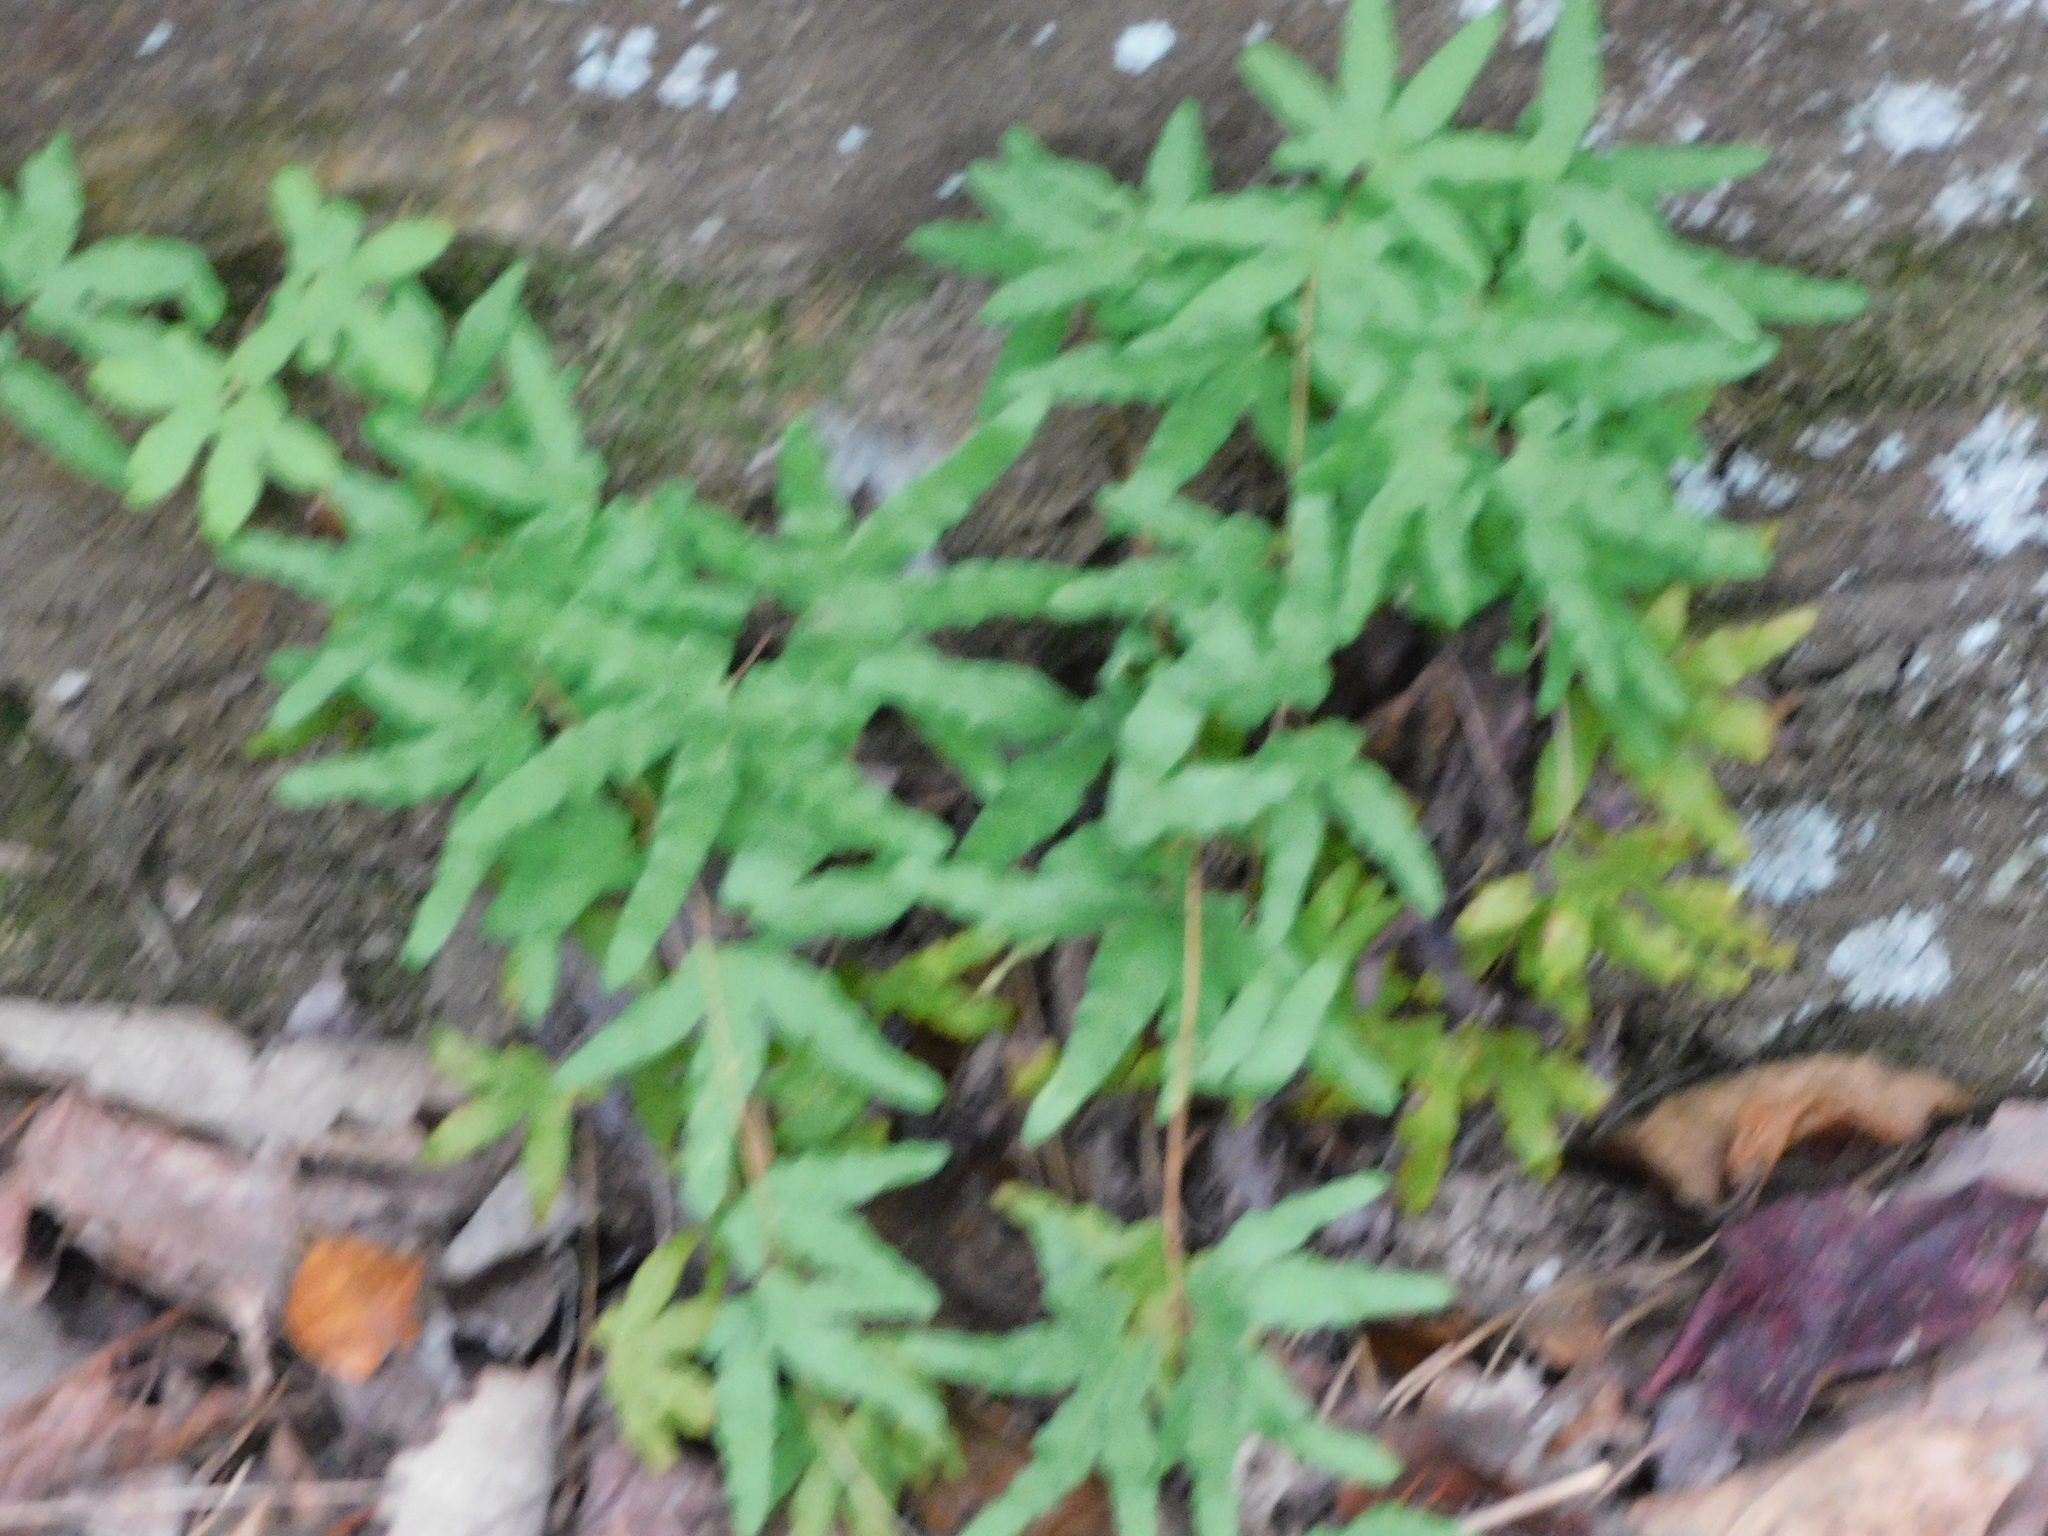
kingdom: Plantae
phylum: Tracheophyta
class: Polypodiopsida
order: Schizaeales
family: Lygodiaceae
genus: Lygodium
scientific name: Lygodium palmatum
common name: American climbing fern
